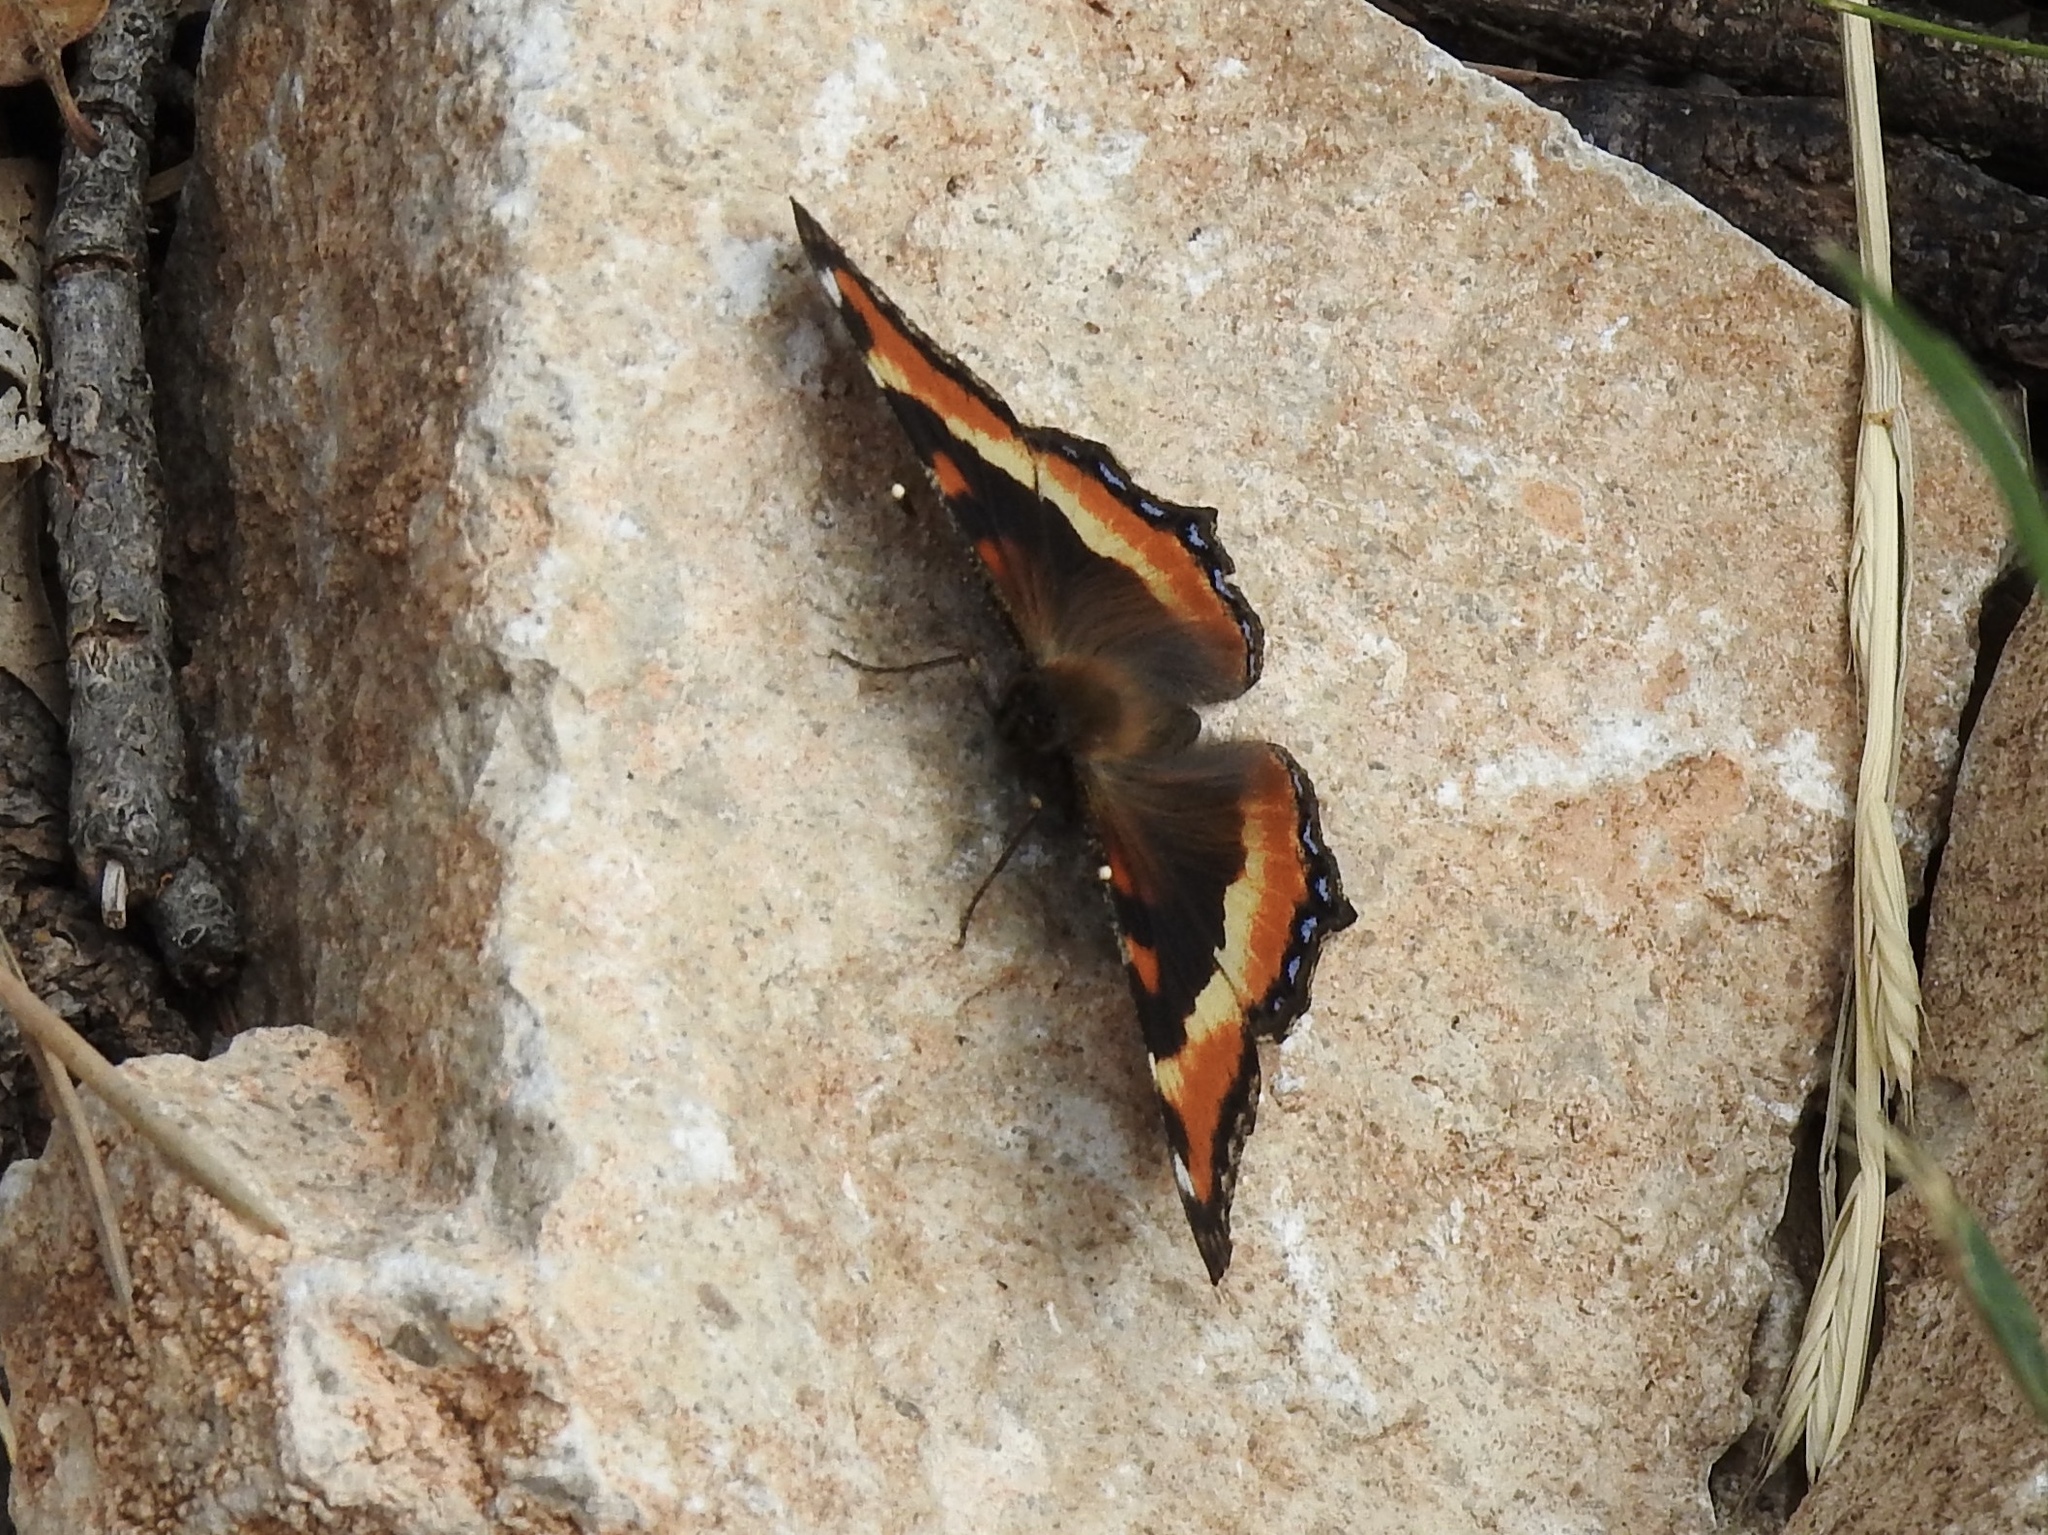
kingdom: Animalia
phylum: Arthropoda
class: Insecta
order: Lepidoptera
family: Nymphalidae
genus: Aglais
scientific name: Aglais milberti
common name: Milbert's tortoiseshell
